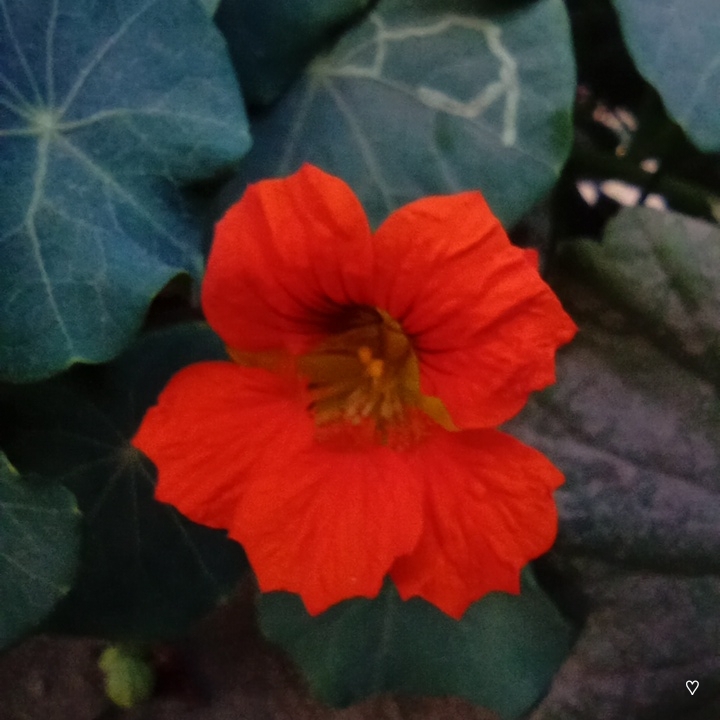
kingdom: Plantae
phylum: Tracheophyta
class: Magnoliopsida
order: Brassicales
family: Tropaeolaceae
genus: Tropaeolum
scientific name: Tropaeolum majus
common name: Nasturtium
